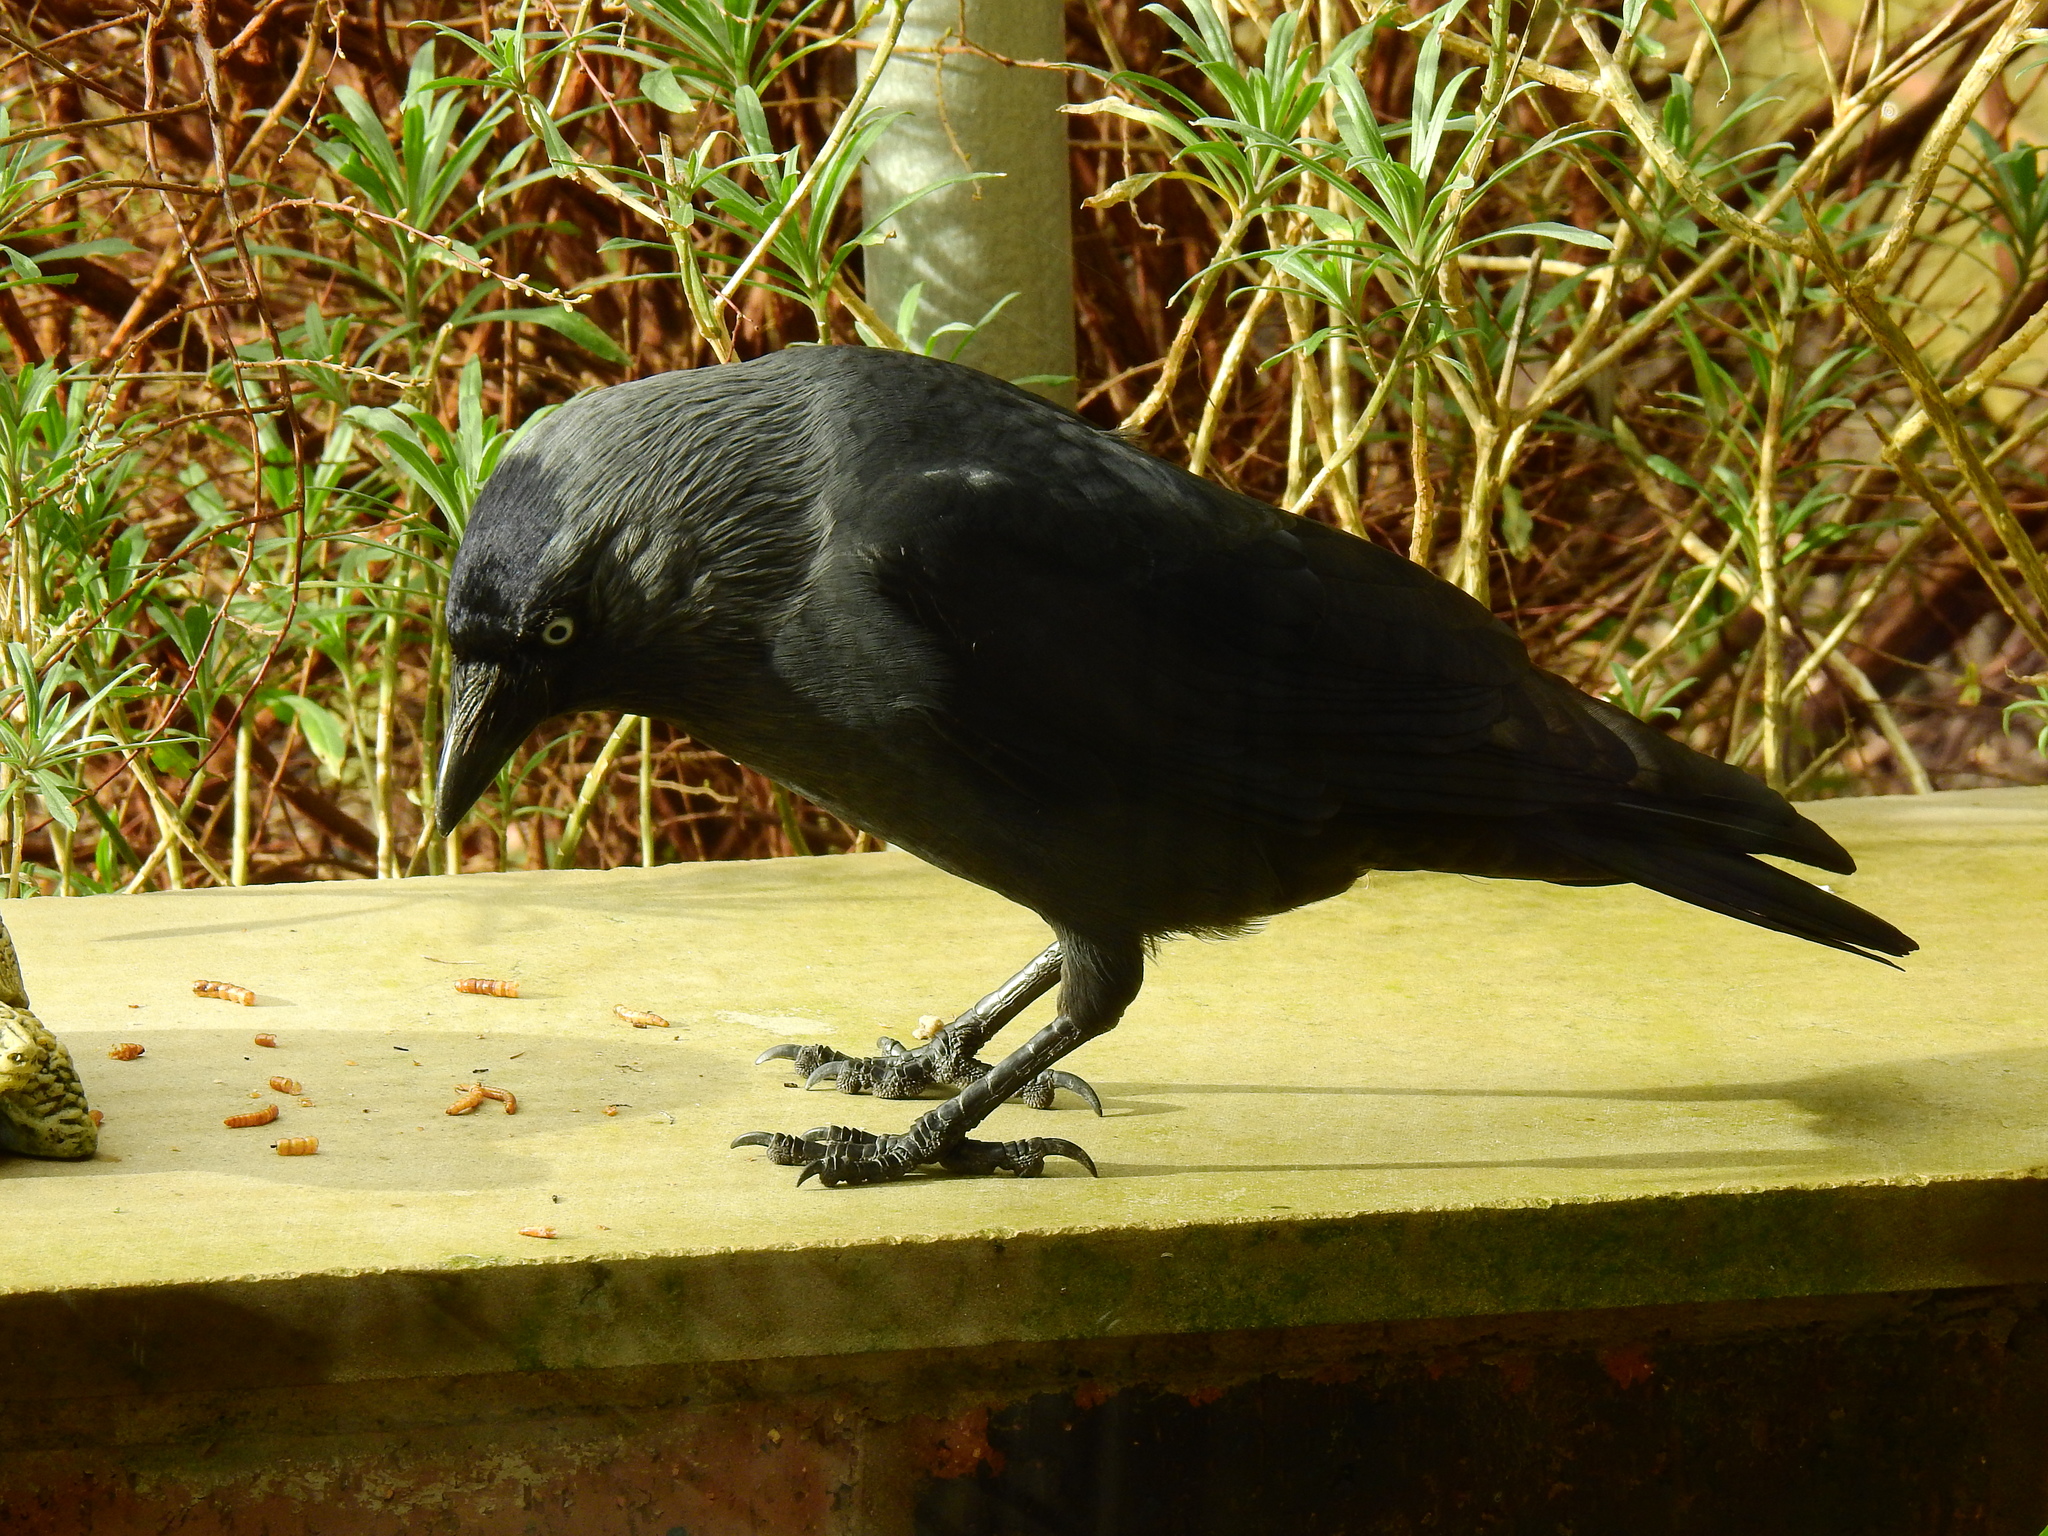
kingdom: Animalia
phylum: Chordata
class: Aves
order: Passeriformes
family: Corvidae
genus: Coloeus
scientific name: Coloeus monedula
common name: Western jackdaw
